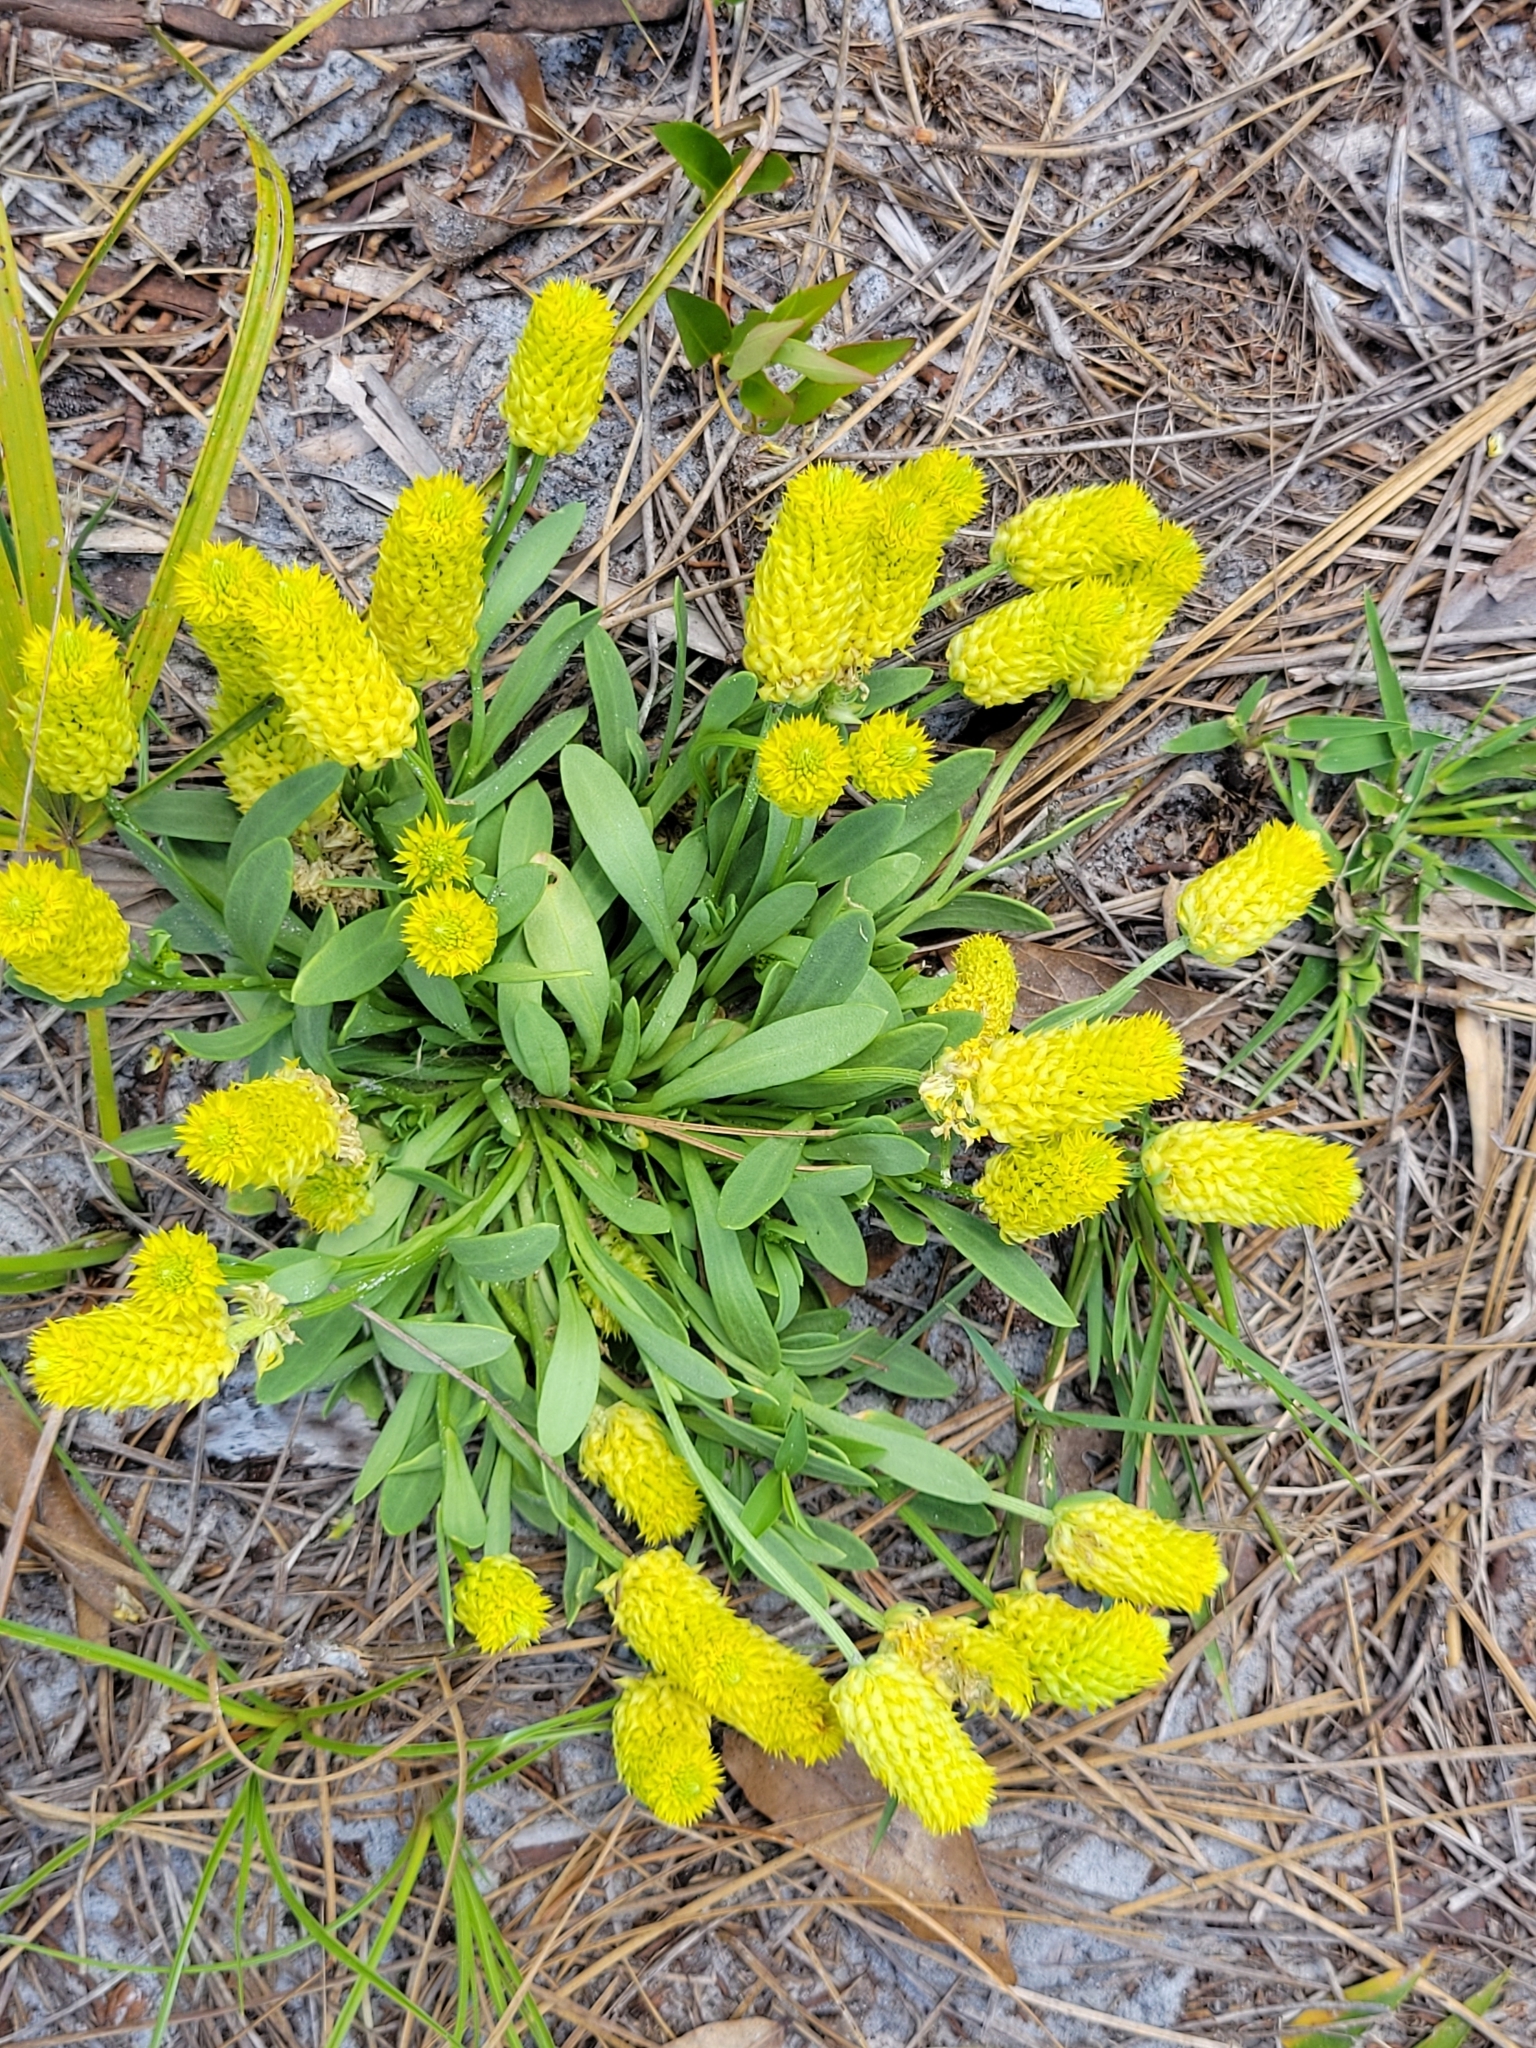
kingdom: Plantae
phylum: Tracheophyta
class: Magnoliopsida
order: Fabales
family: Polygalaceae
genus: Polygala
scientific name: Polygala nana
